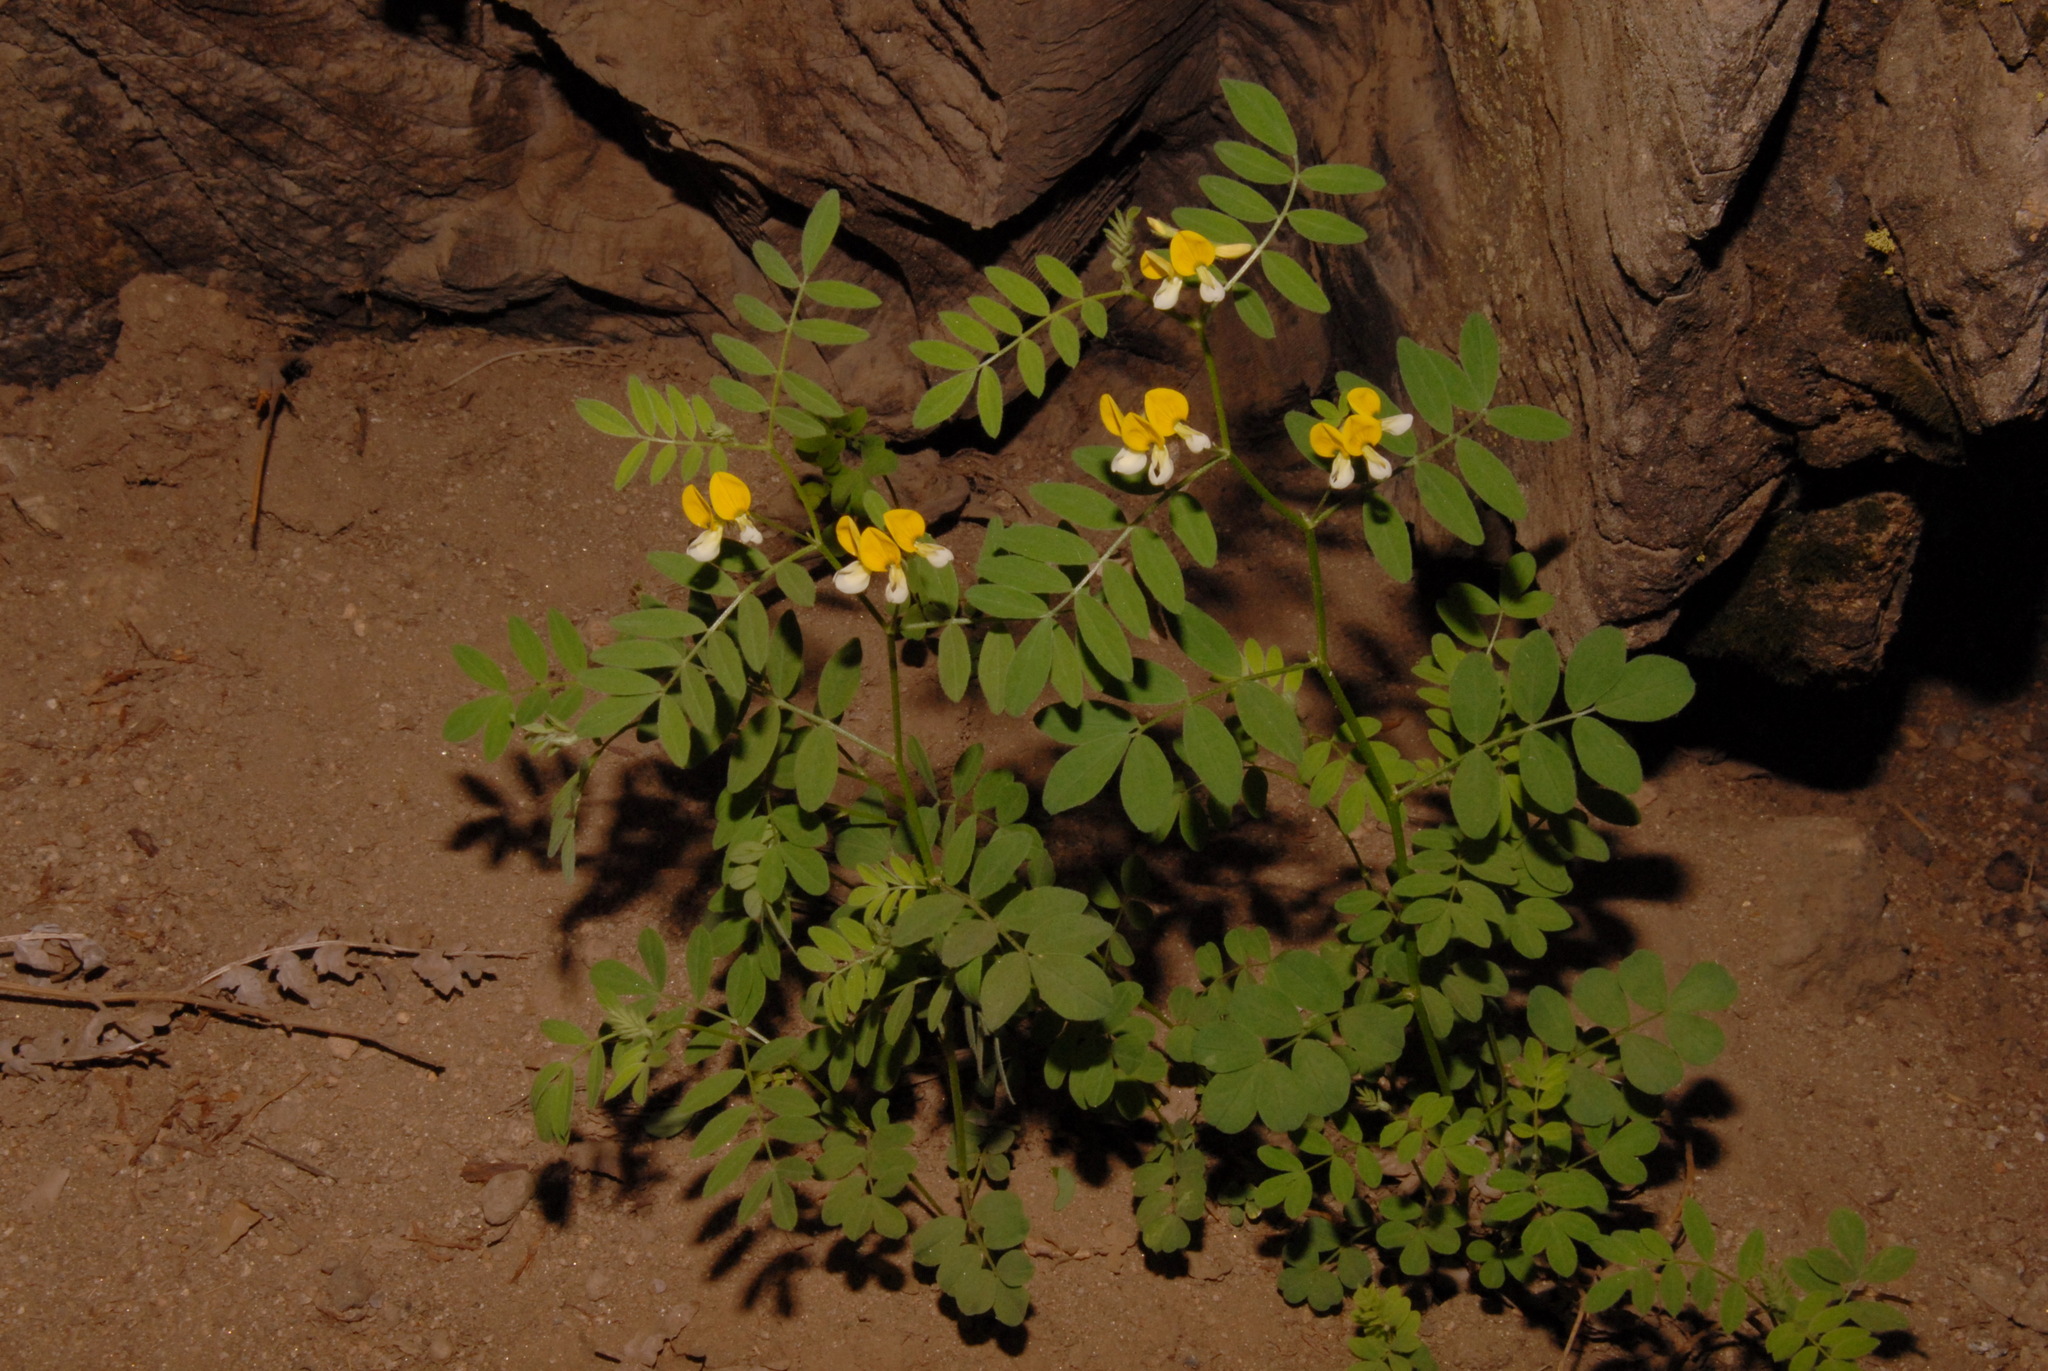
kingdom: Plantae
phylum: Tracheophyta
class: Magnoliopsida
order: Fabales
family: Fabaceae
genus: Hosackia
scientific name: Hosackia oblongifolia
